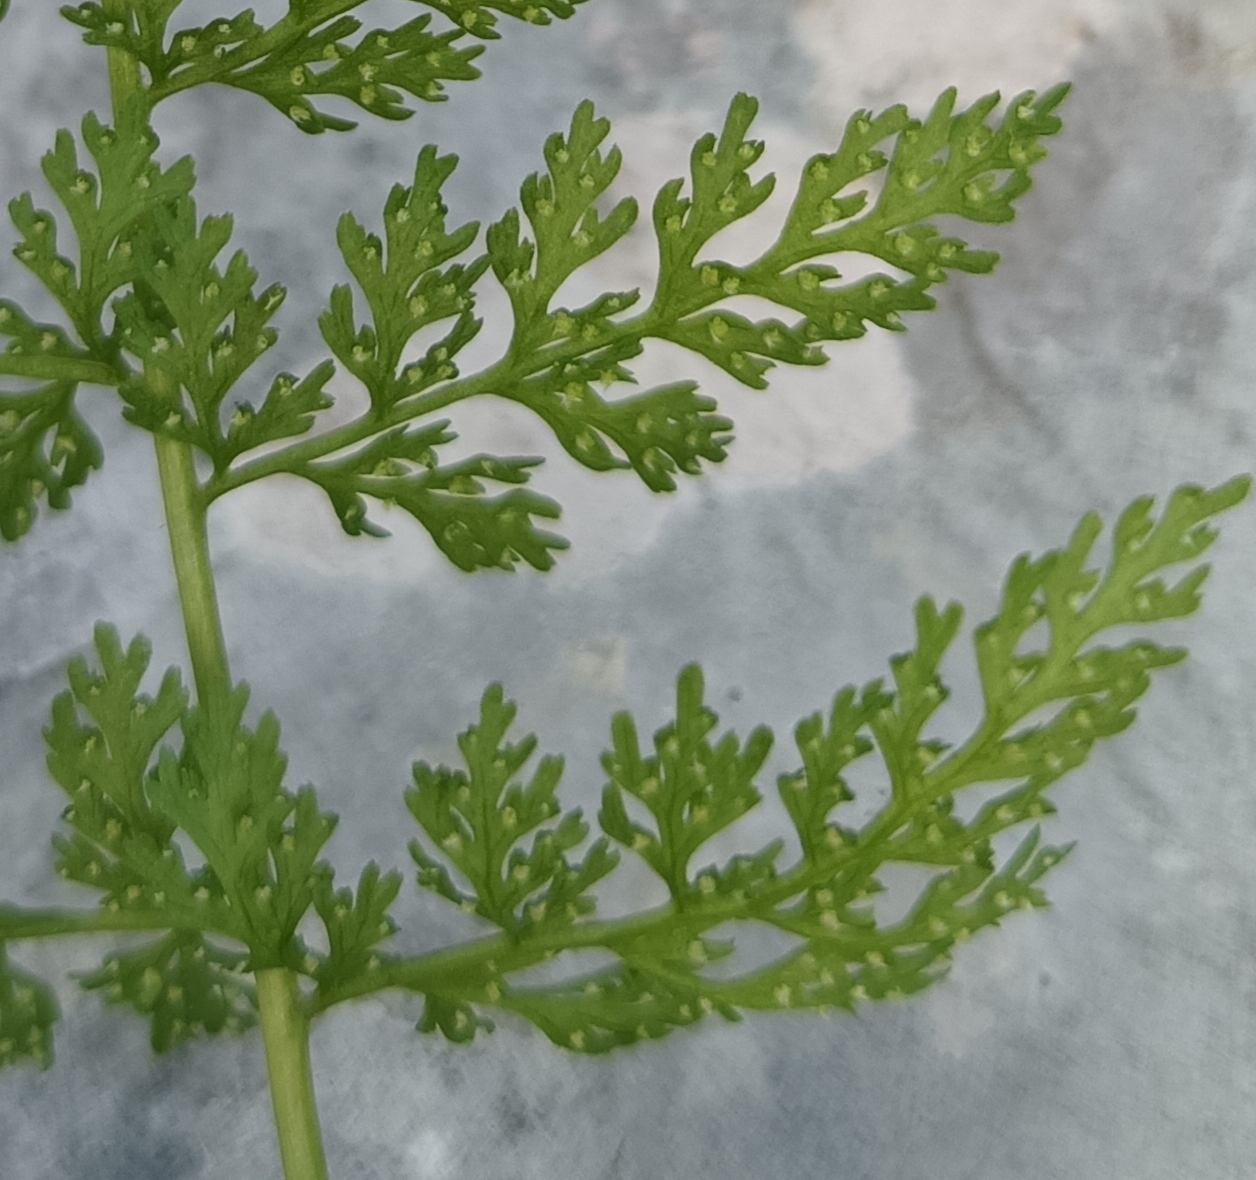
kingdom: Plantae
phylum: Tracheophyta
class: Polypodiopsida
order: Polypodiales
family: Cystopteridaceae
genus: Cystopteris
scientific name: Cystopteris alpina
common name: Alpine bladder-fern
